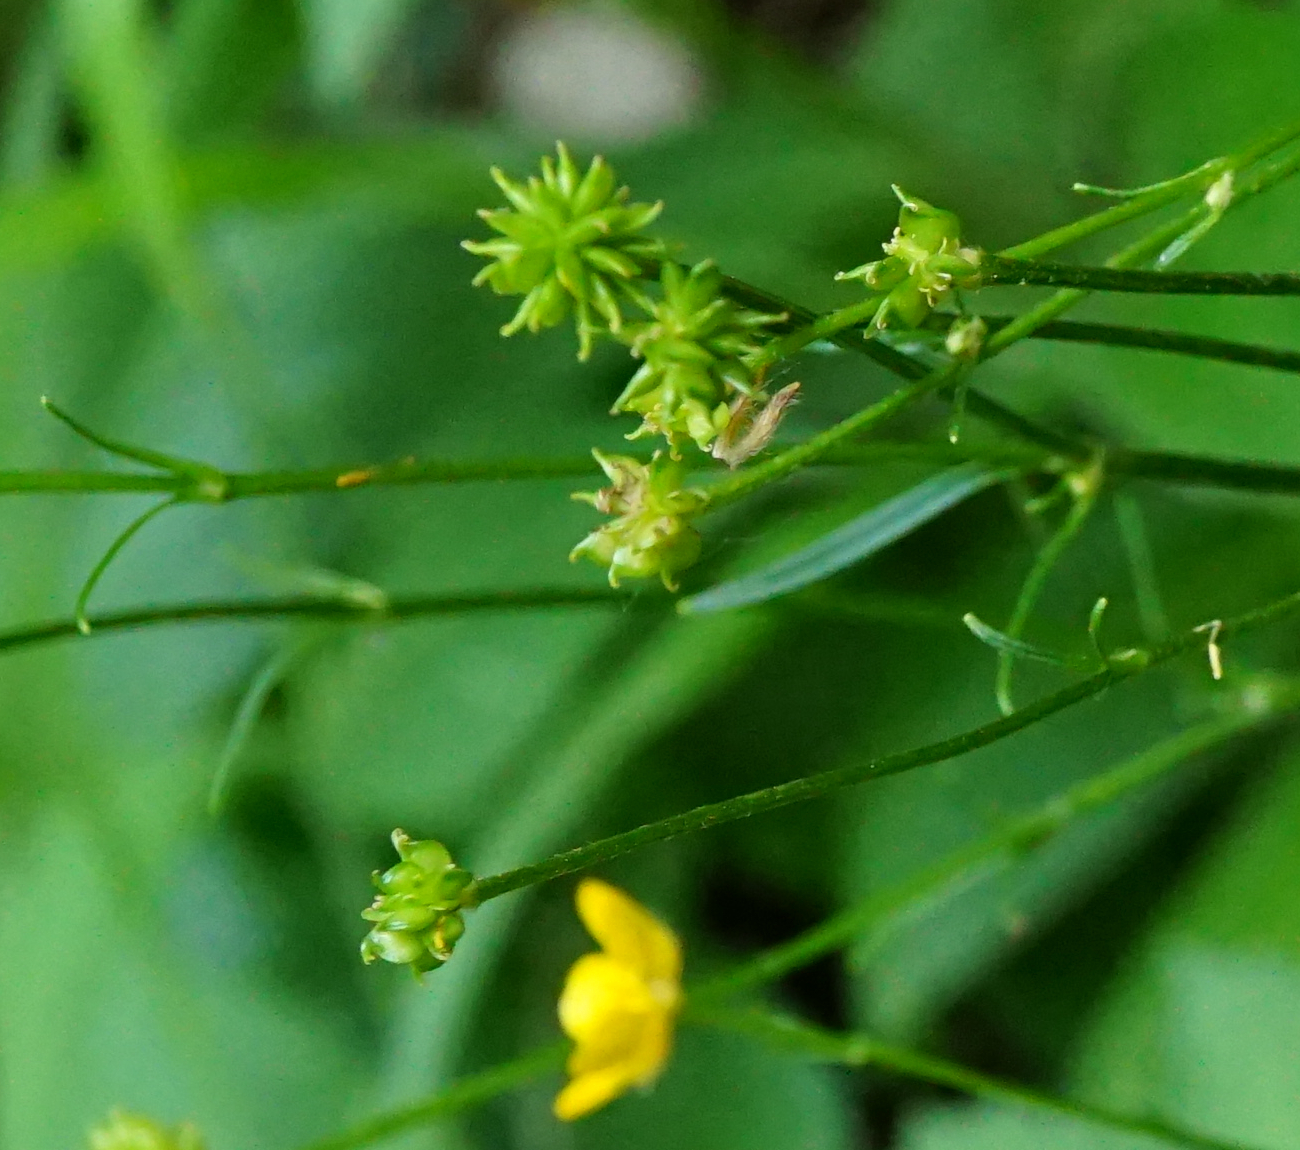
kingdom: Plantae
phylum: Tracheophyta
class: Magnoliopsida
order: Ranunculales
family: Ranunculaceae
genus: Ranunculus
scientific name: Ranunculus
